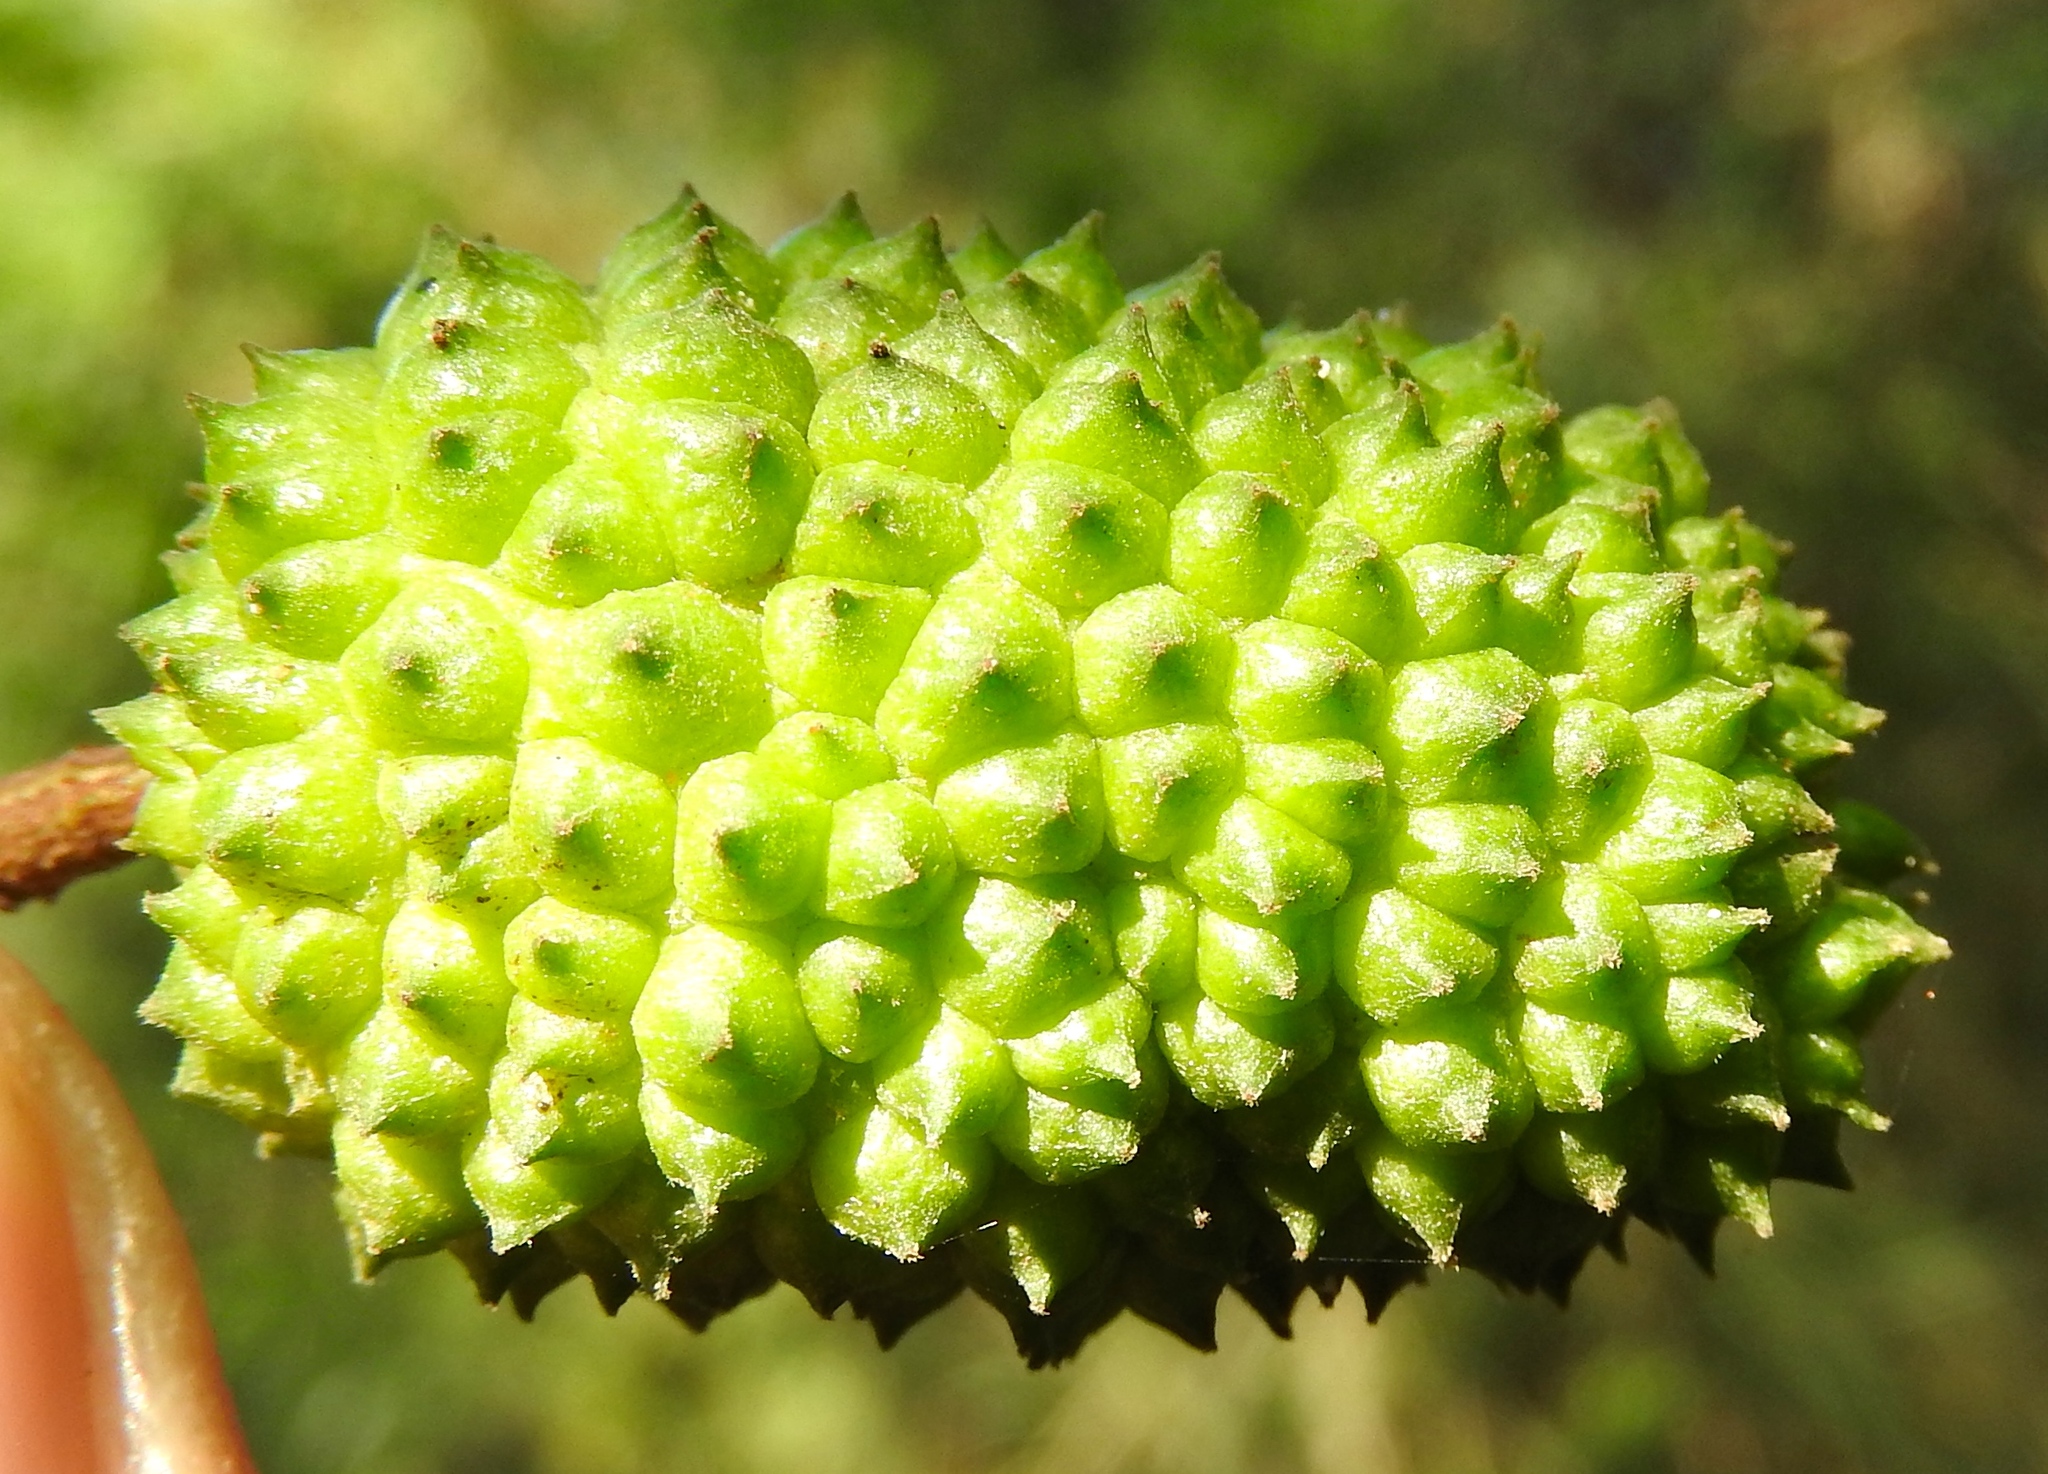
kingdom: Plantae
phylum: Tracheophyta
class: Magnoliopsida
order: Malvales
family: Malvaceae
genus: Guazuma
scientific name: Guazuma ulmifolia
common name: Bastard-cedar
